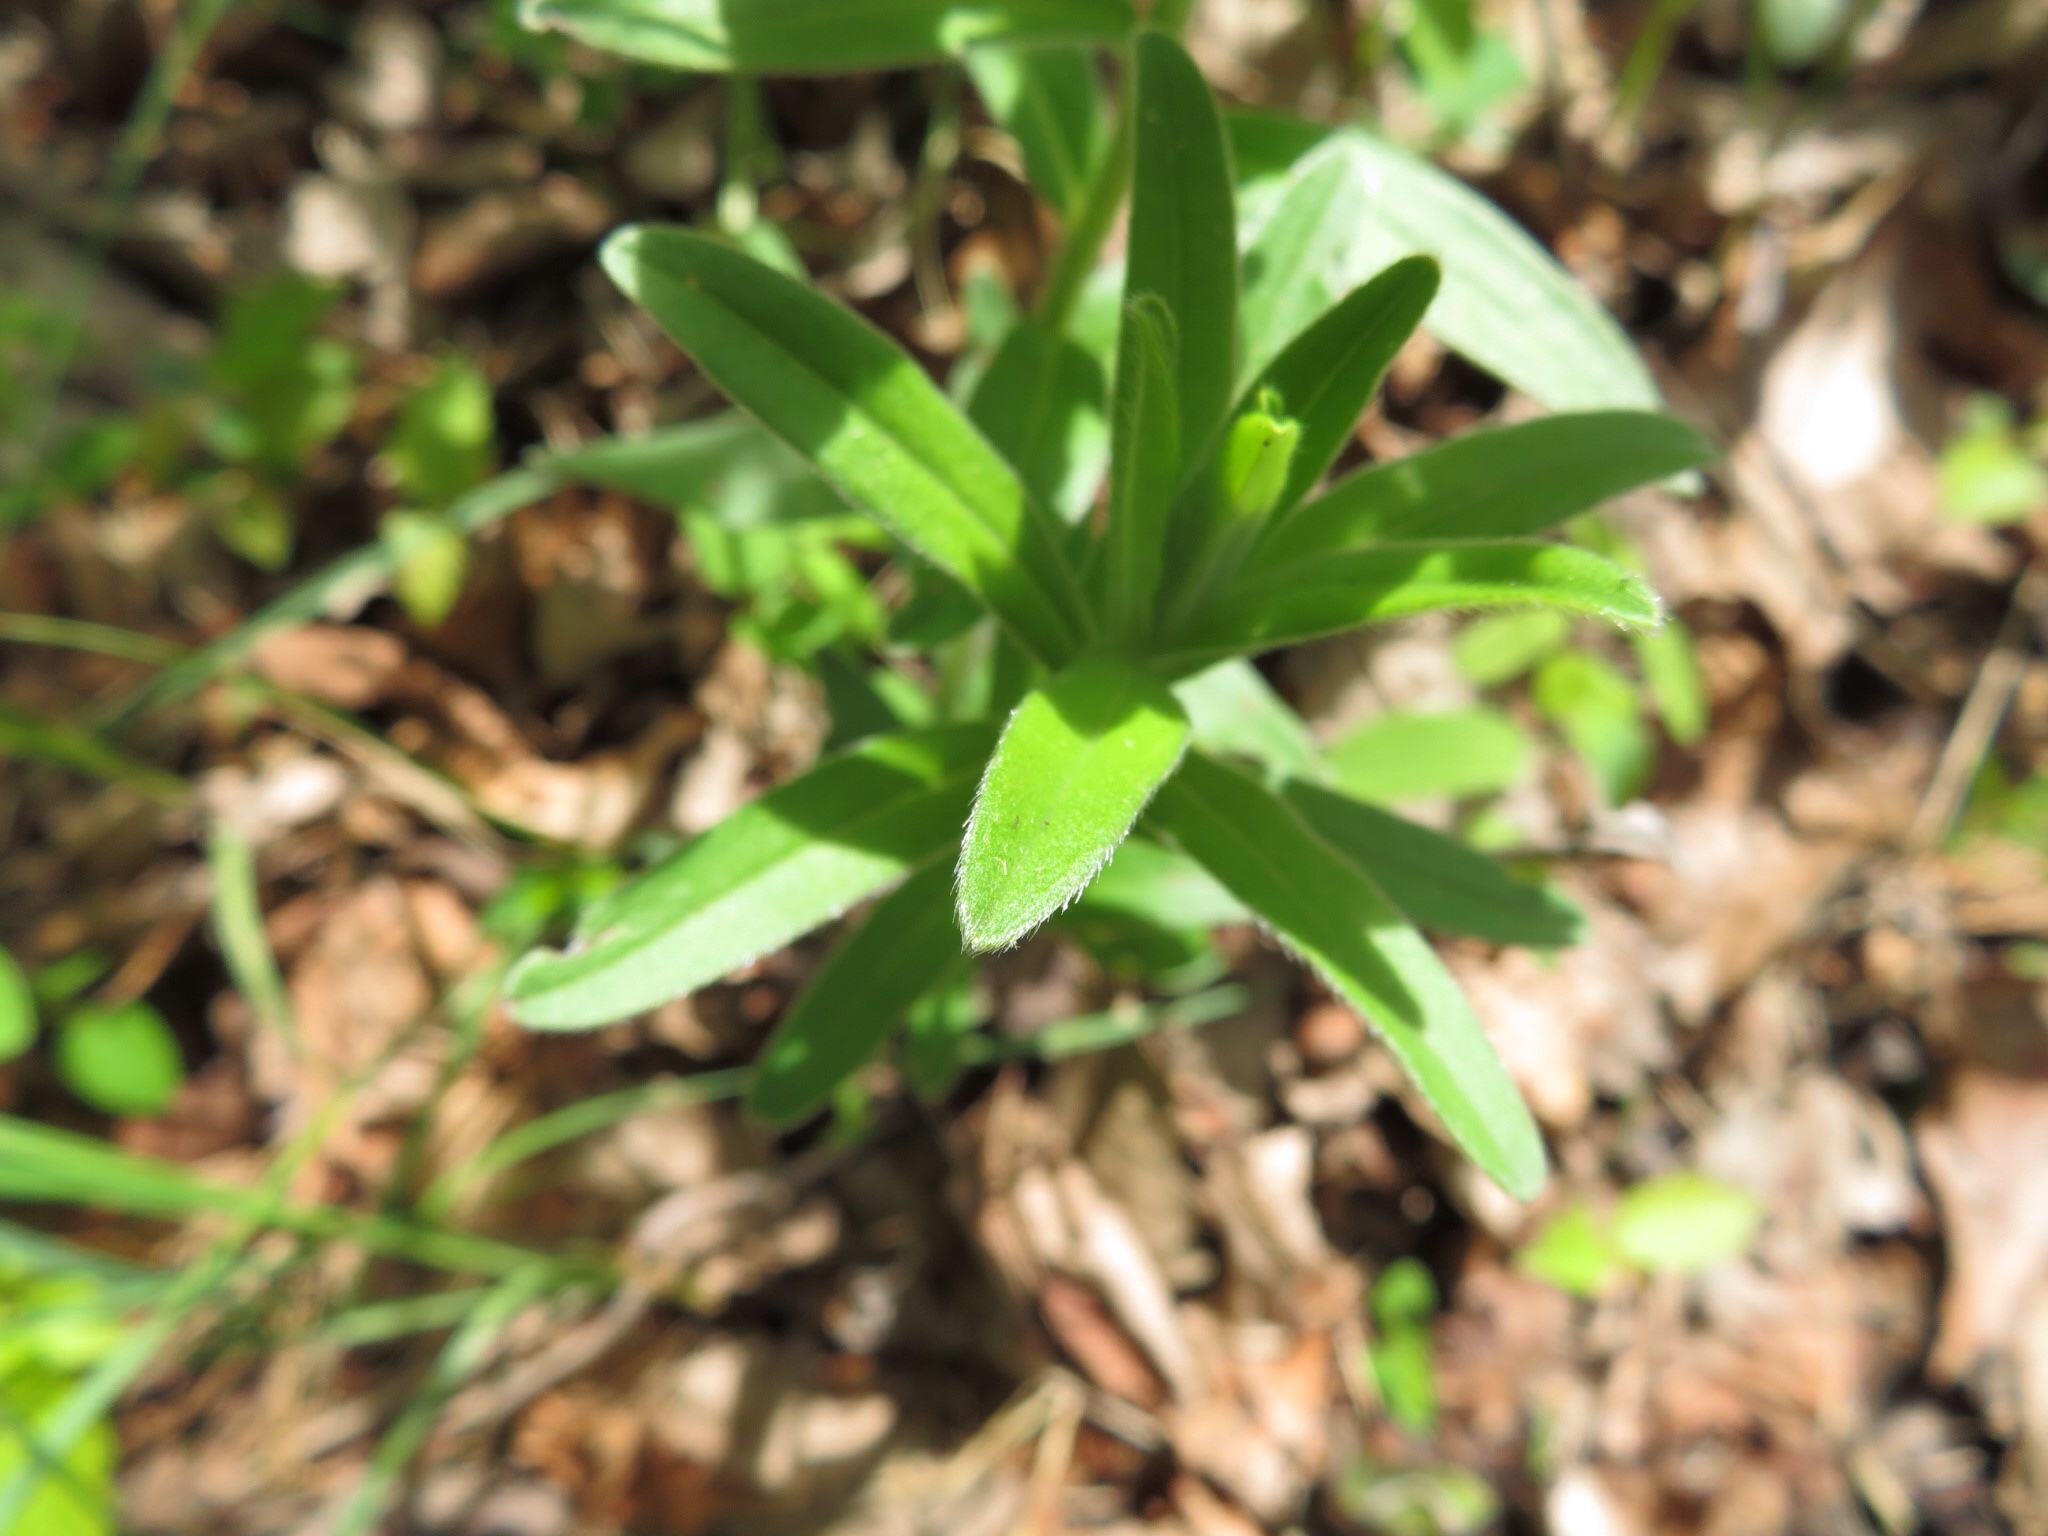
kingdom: Plantae
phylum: Tracheophyta
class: Magnoliopsida
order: Boraginales
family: Boraginaceae
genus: Lithospermum
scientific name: Lithospermum canescens
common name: Hoary puccoon
